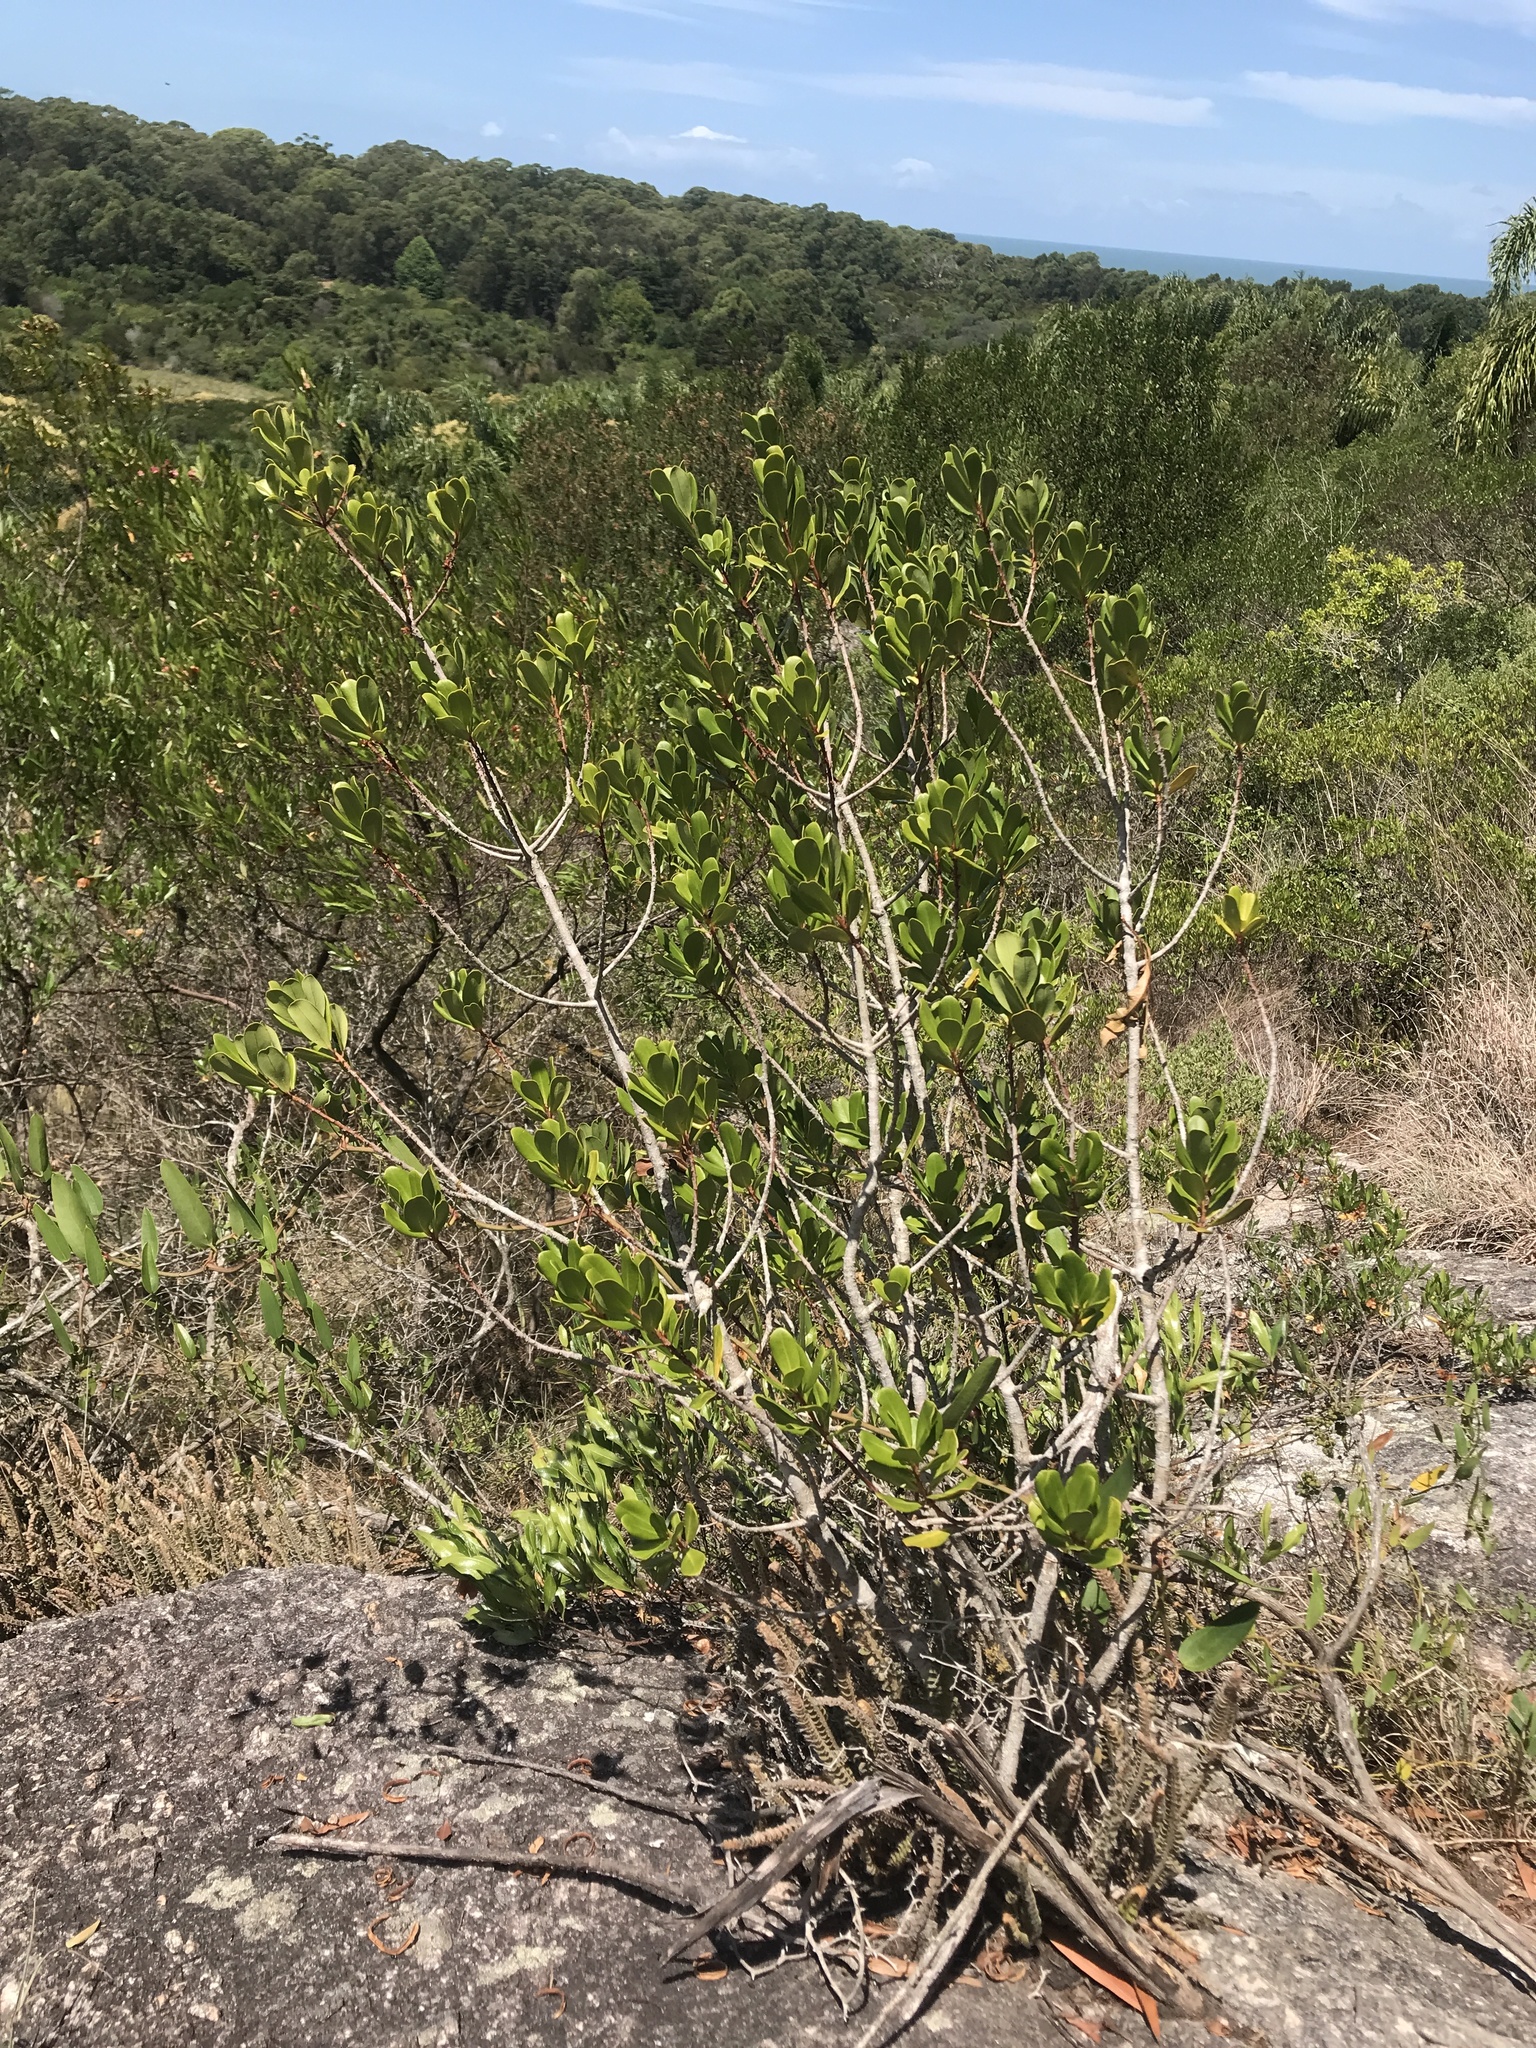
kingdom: Plantae
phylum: Tracheophyta
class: Magnoliopsida
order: Ericales
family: Primulaceae
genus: Myrsine
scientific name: Myrsine laetevirens
